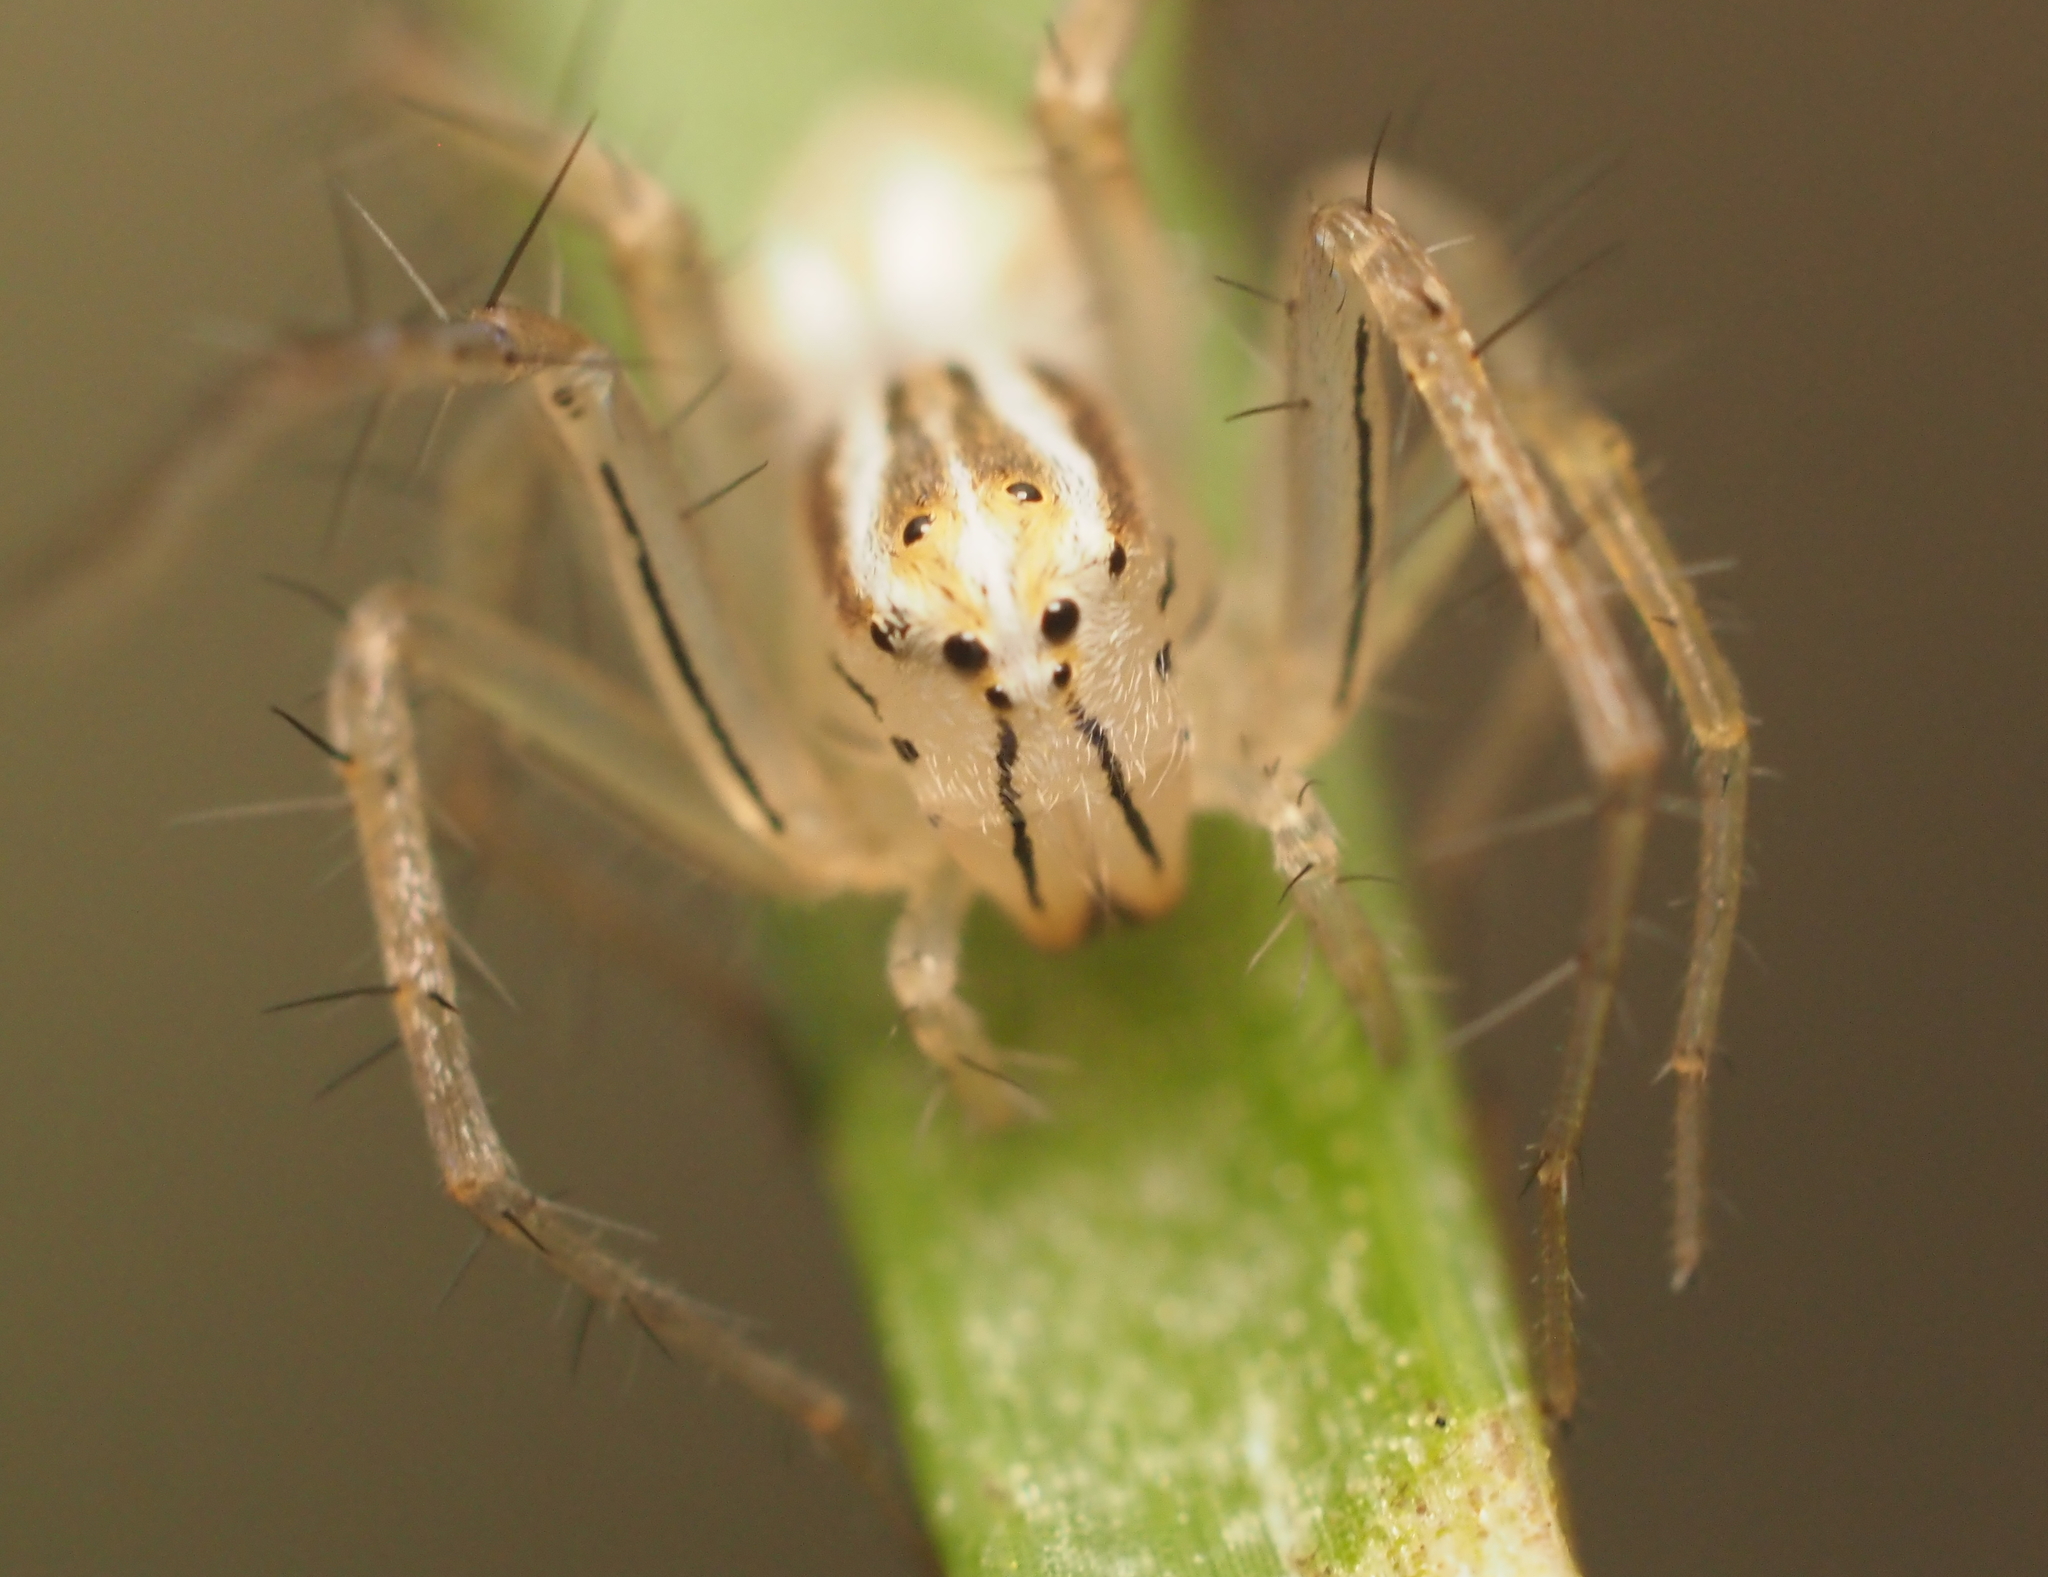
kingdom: Animalia
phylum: Arthropoda
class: Arachnida
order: Araneae
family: Oxyopidae
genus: Oxyopes
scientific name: Oxyopes salticus
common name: Lynx spiders
